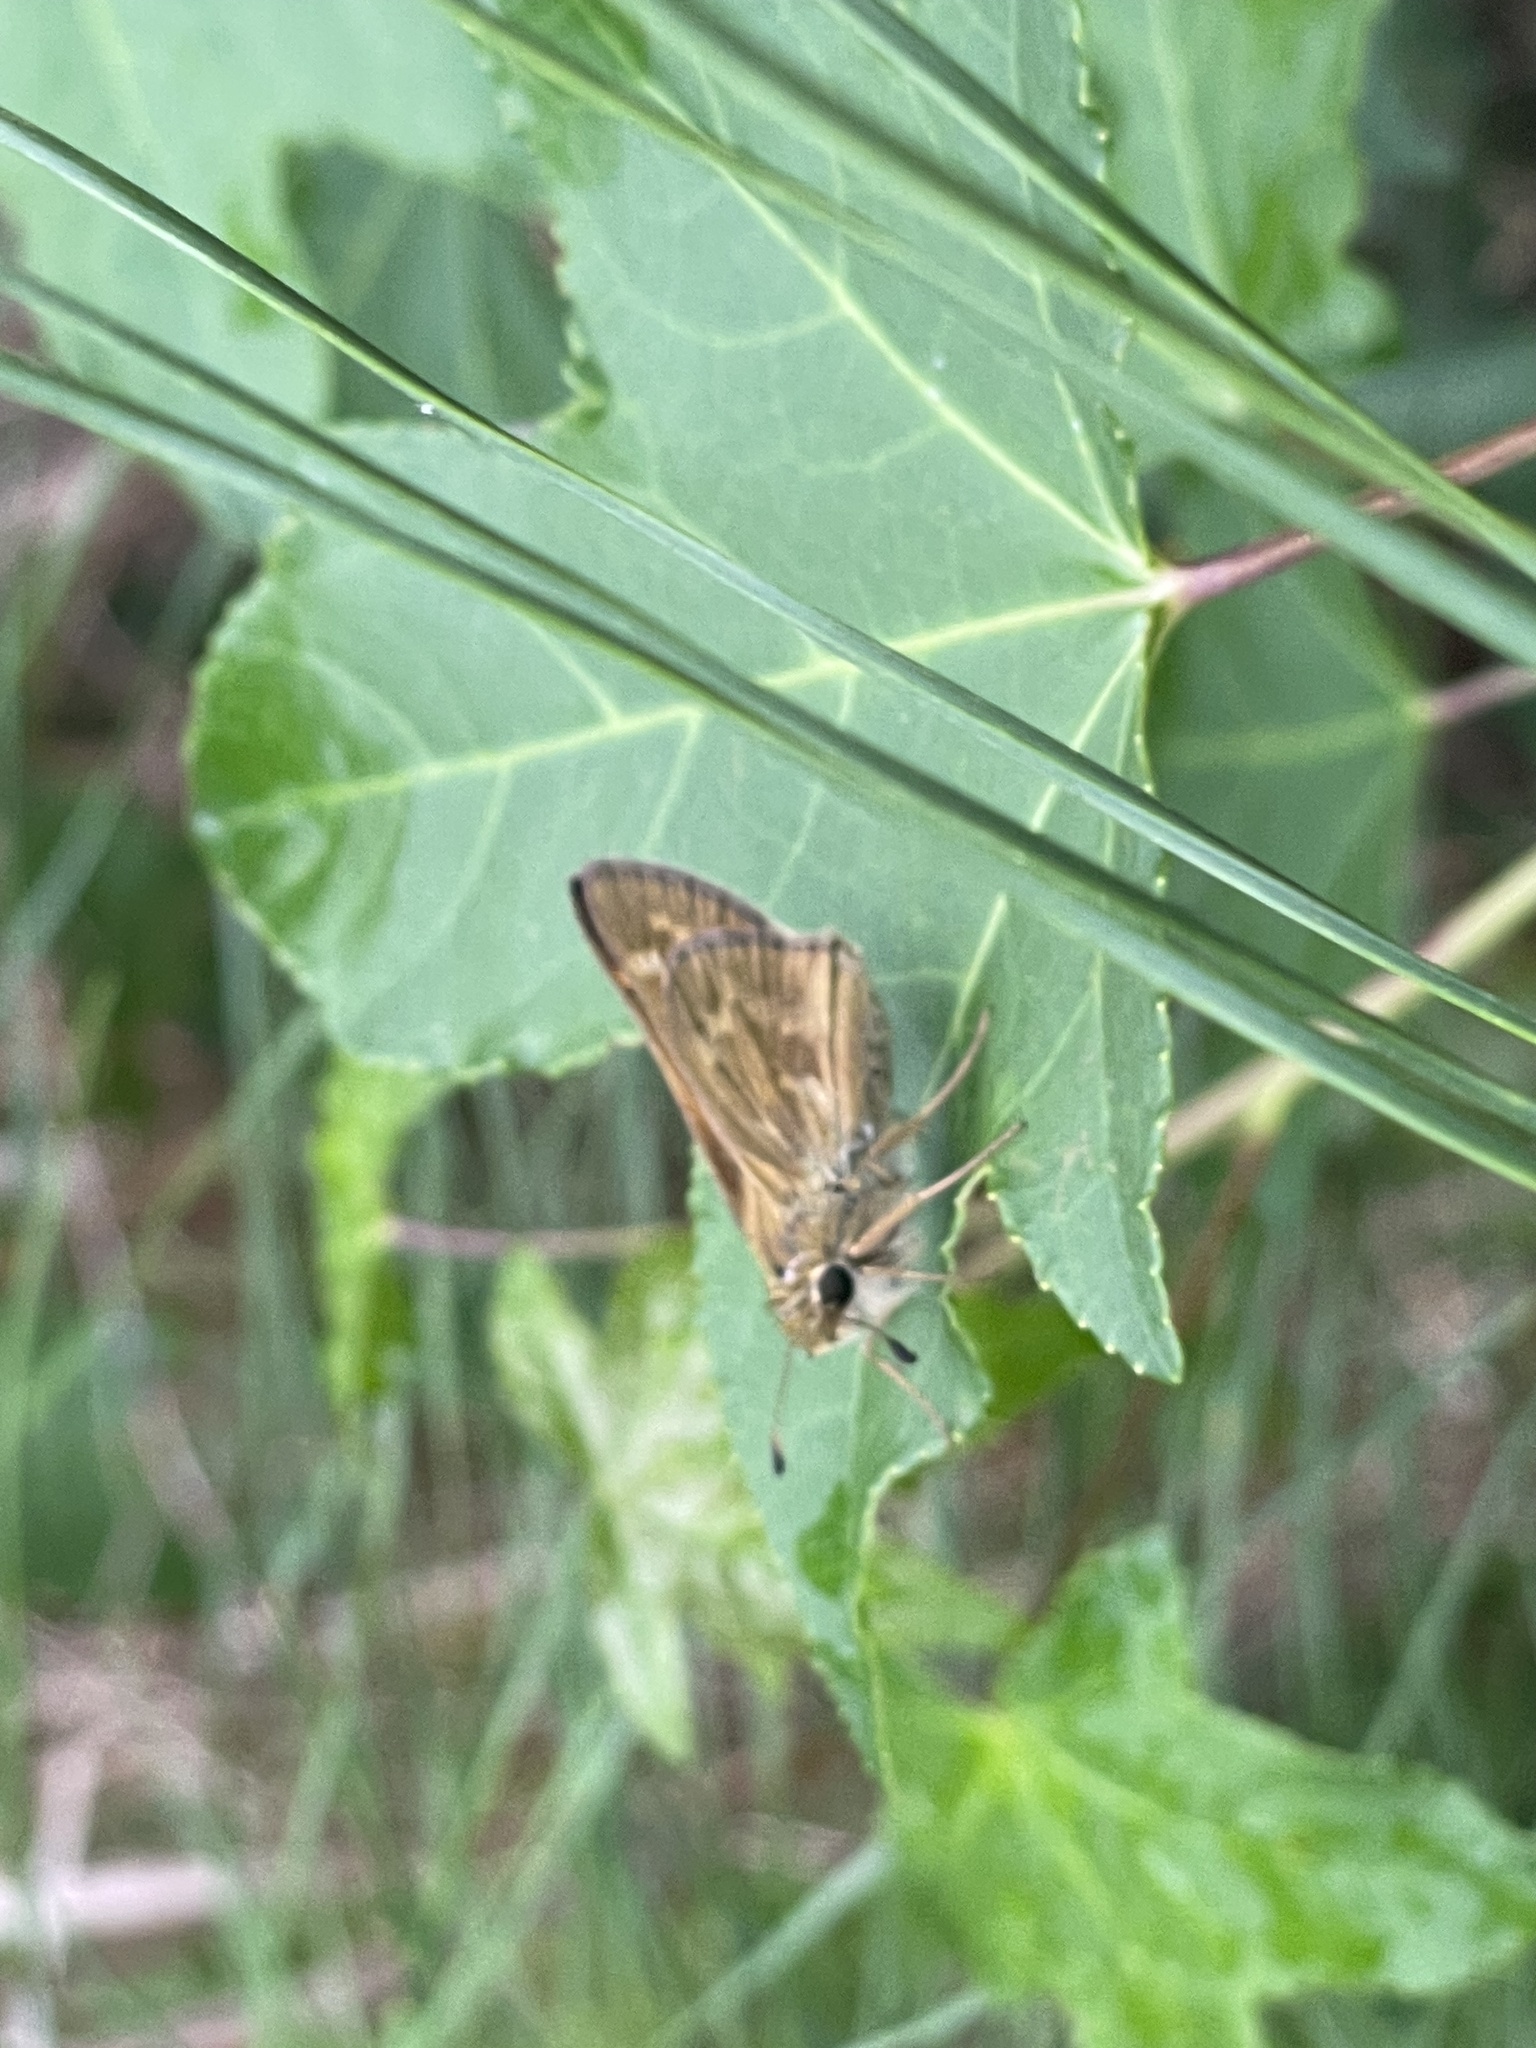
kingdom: Animalia
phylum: Arthropoda
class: Insecta
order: Lepidoptera
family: Hesperiidae
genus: Atalopedes
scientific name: Atalopedes
